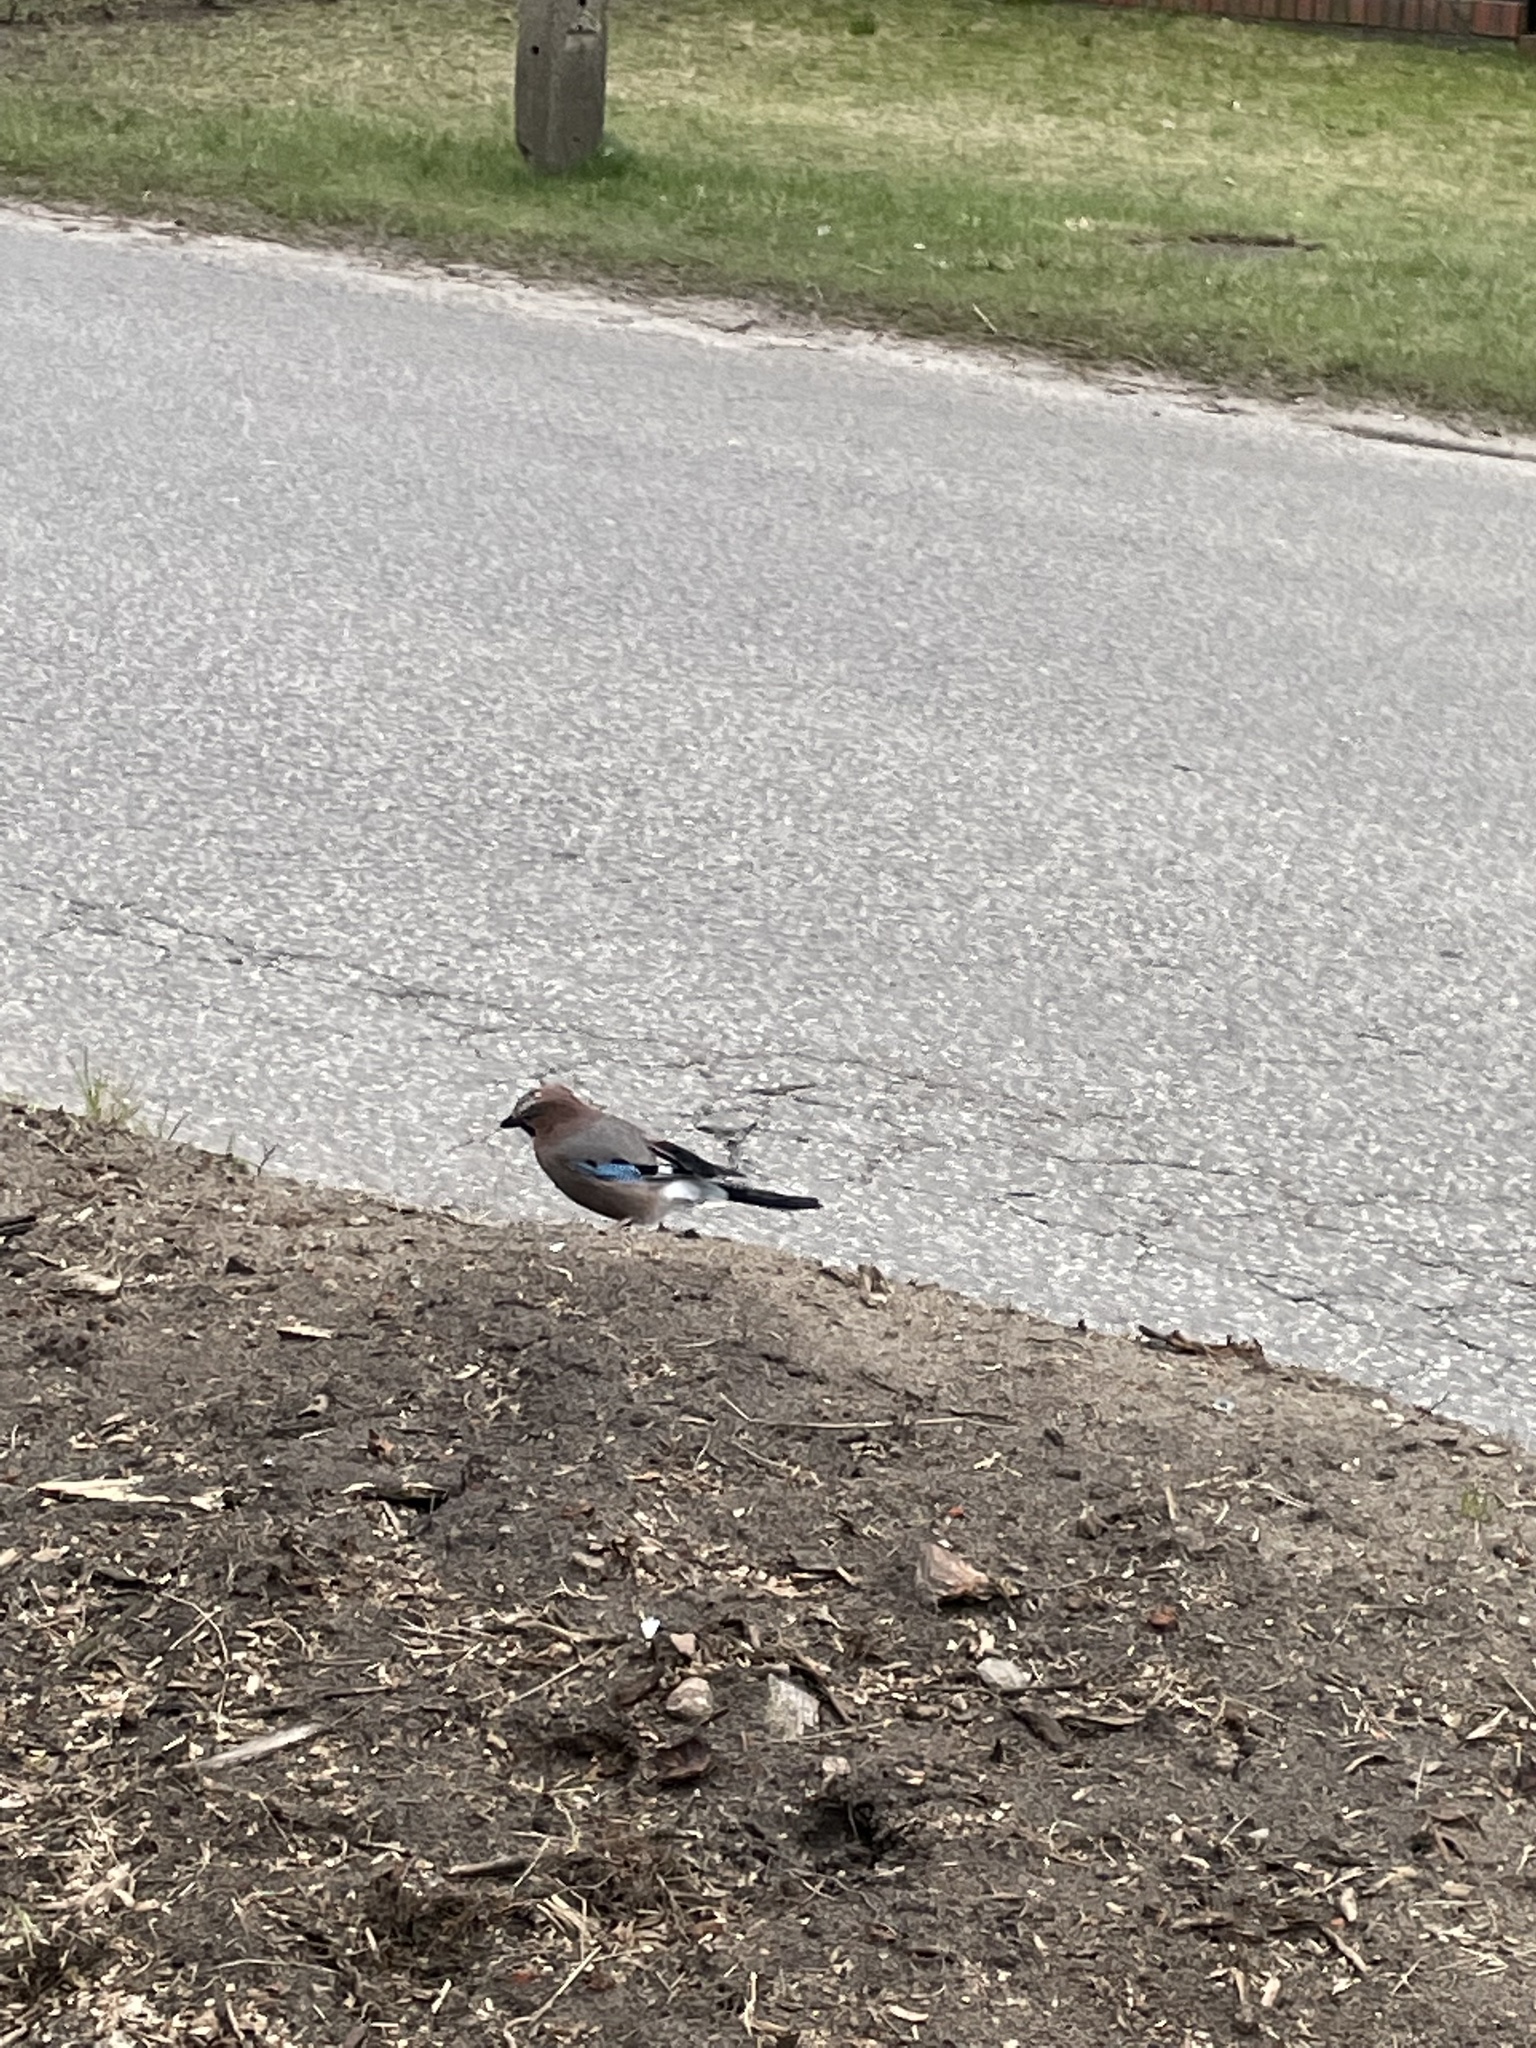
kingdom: Animalia
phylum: Chordata
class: Aves
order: Passeriformes
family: Corvidae
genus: Garrulus
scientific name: Garrulus glandarius
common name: Eurasian jay
